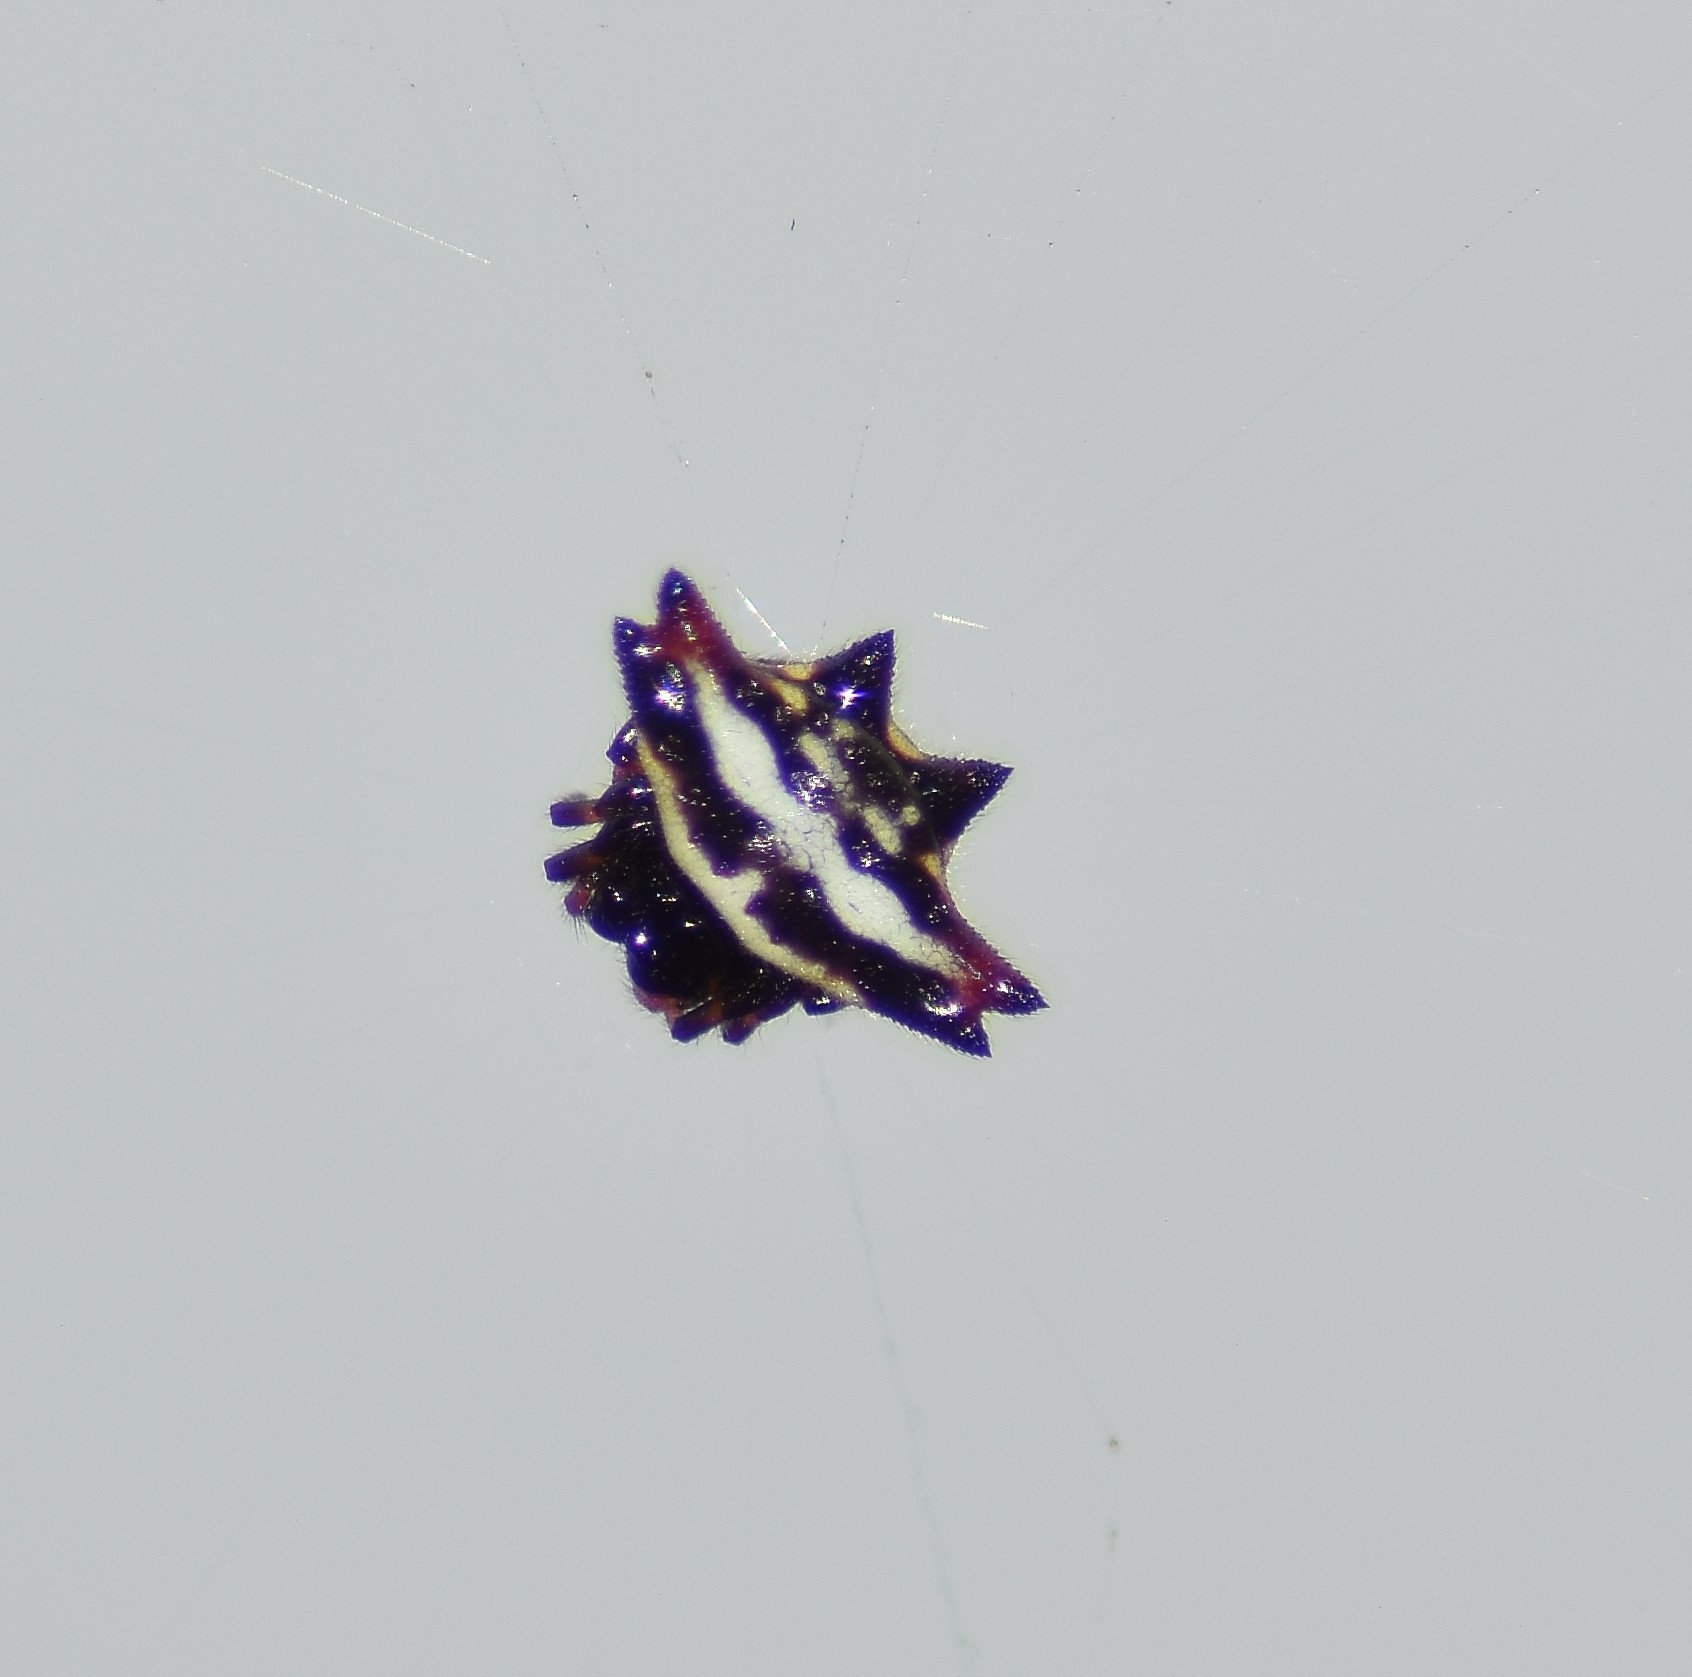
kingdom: Animalia
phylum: Arthropoda
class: Arachnida
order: Araneae
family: Araneidae
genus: Gasteracantha
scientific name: Gasteracantha geminata
